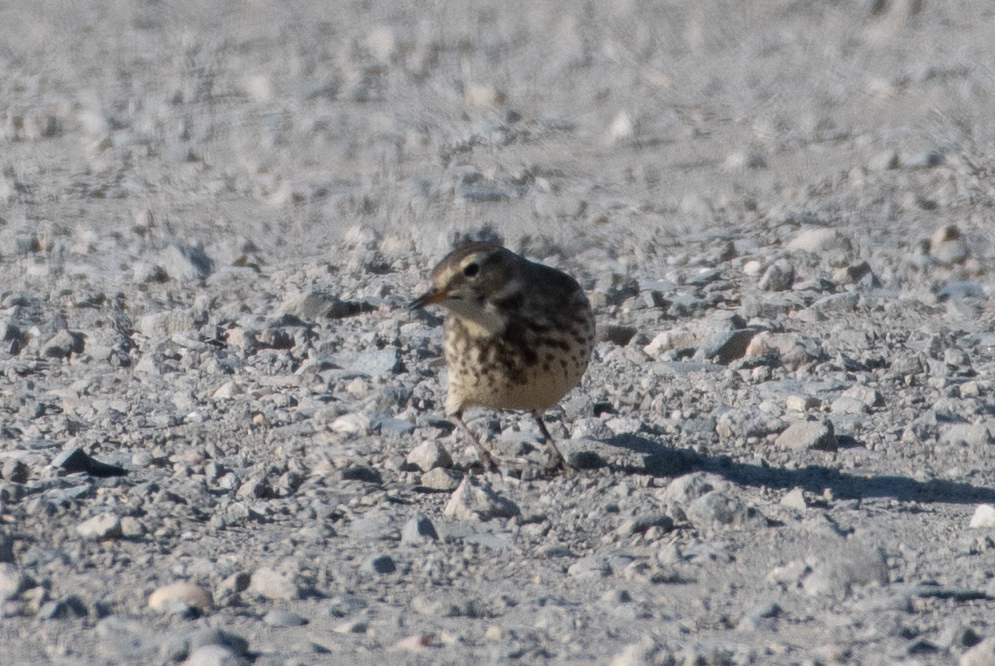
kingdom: Animalia
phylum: Chordata
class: Aves
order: Passeriformes
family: Motacillidae
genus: Anthus
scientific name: Anthus rubescens
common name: Buff-bellied pipit
